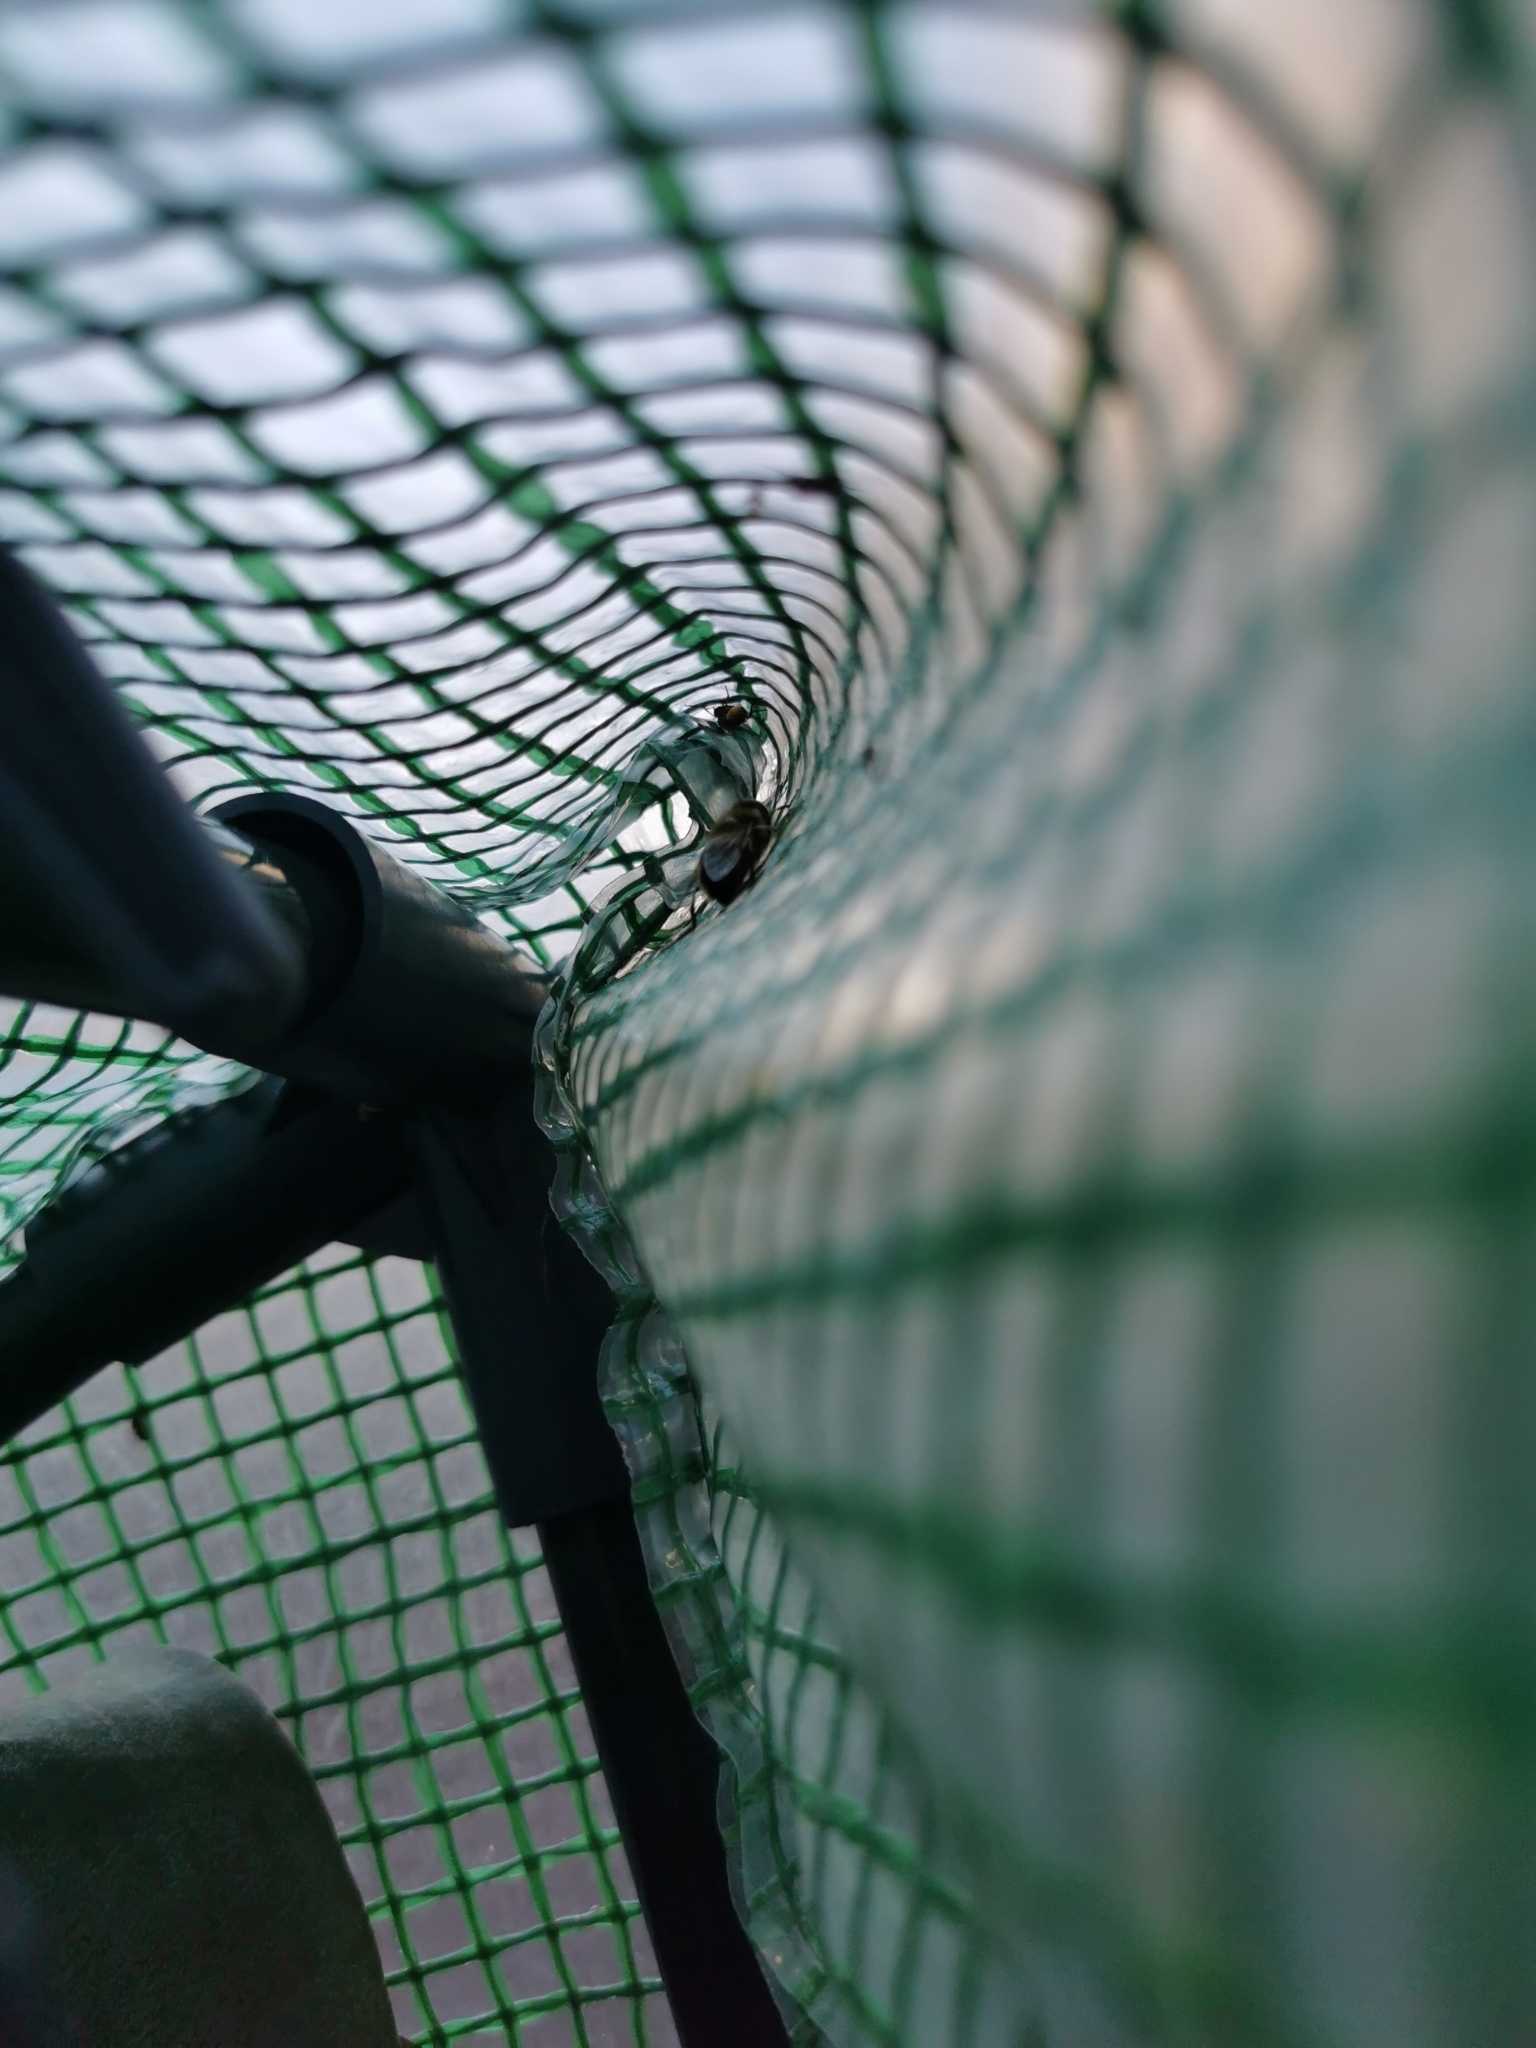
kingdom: Animalia
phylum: Arthropoda
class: Insecta
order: Diptera
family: Syrphidae
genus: Eristalis
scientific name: Eristalis
